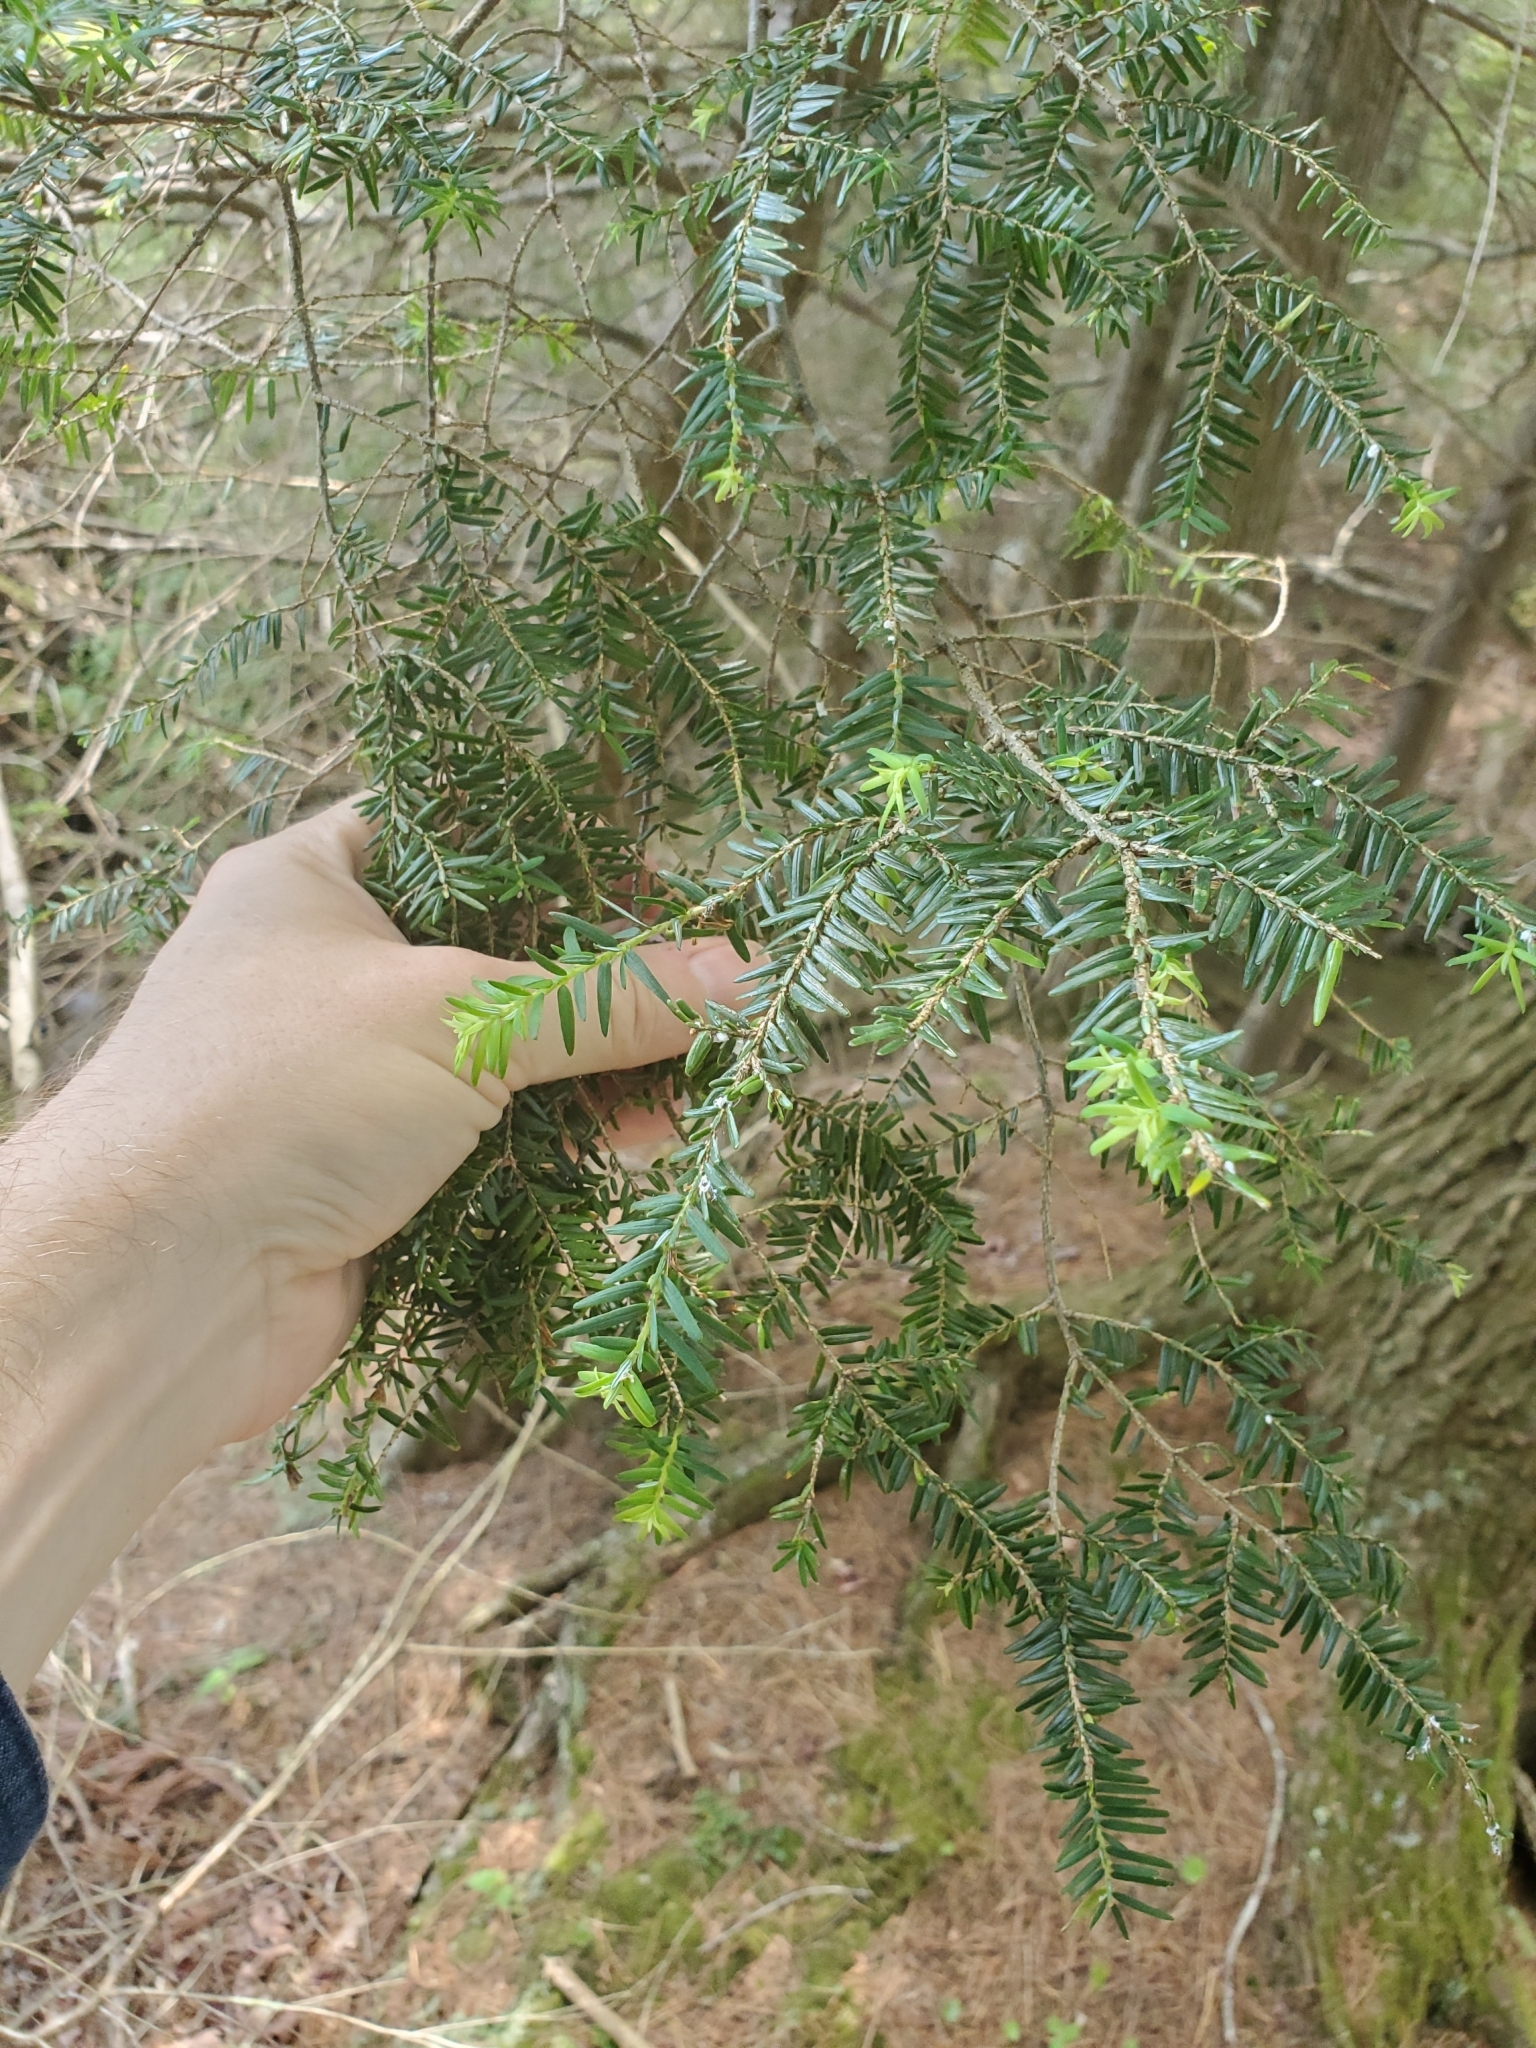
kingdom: Plantae
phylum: Tracheophyta
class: Pinopsida
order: Pinales
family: Pinaceae
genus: Tsuga
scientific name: Tsuga canadensis
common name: Eastern hemlock
